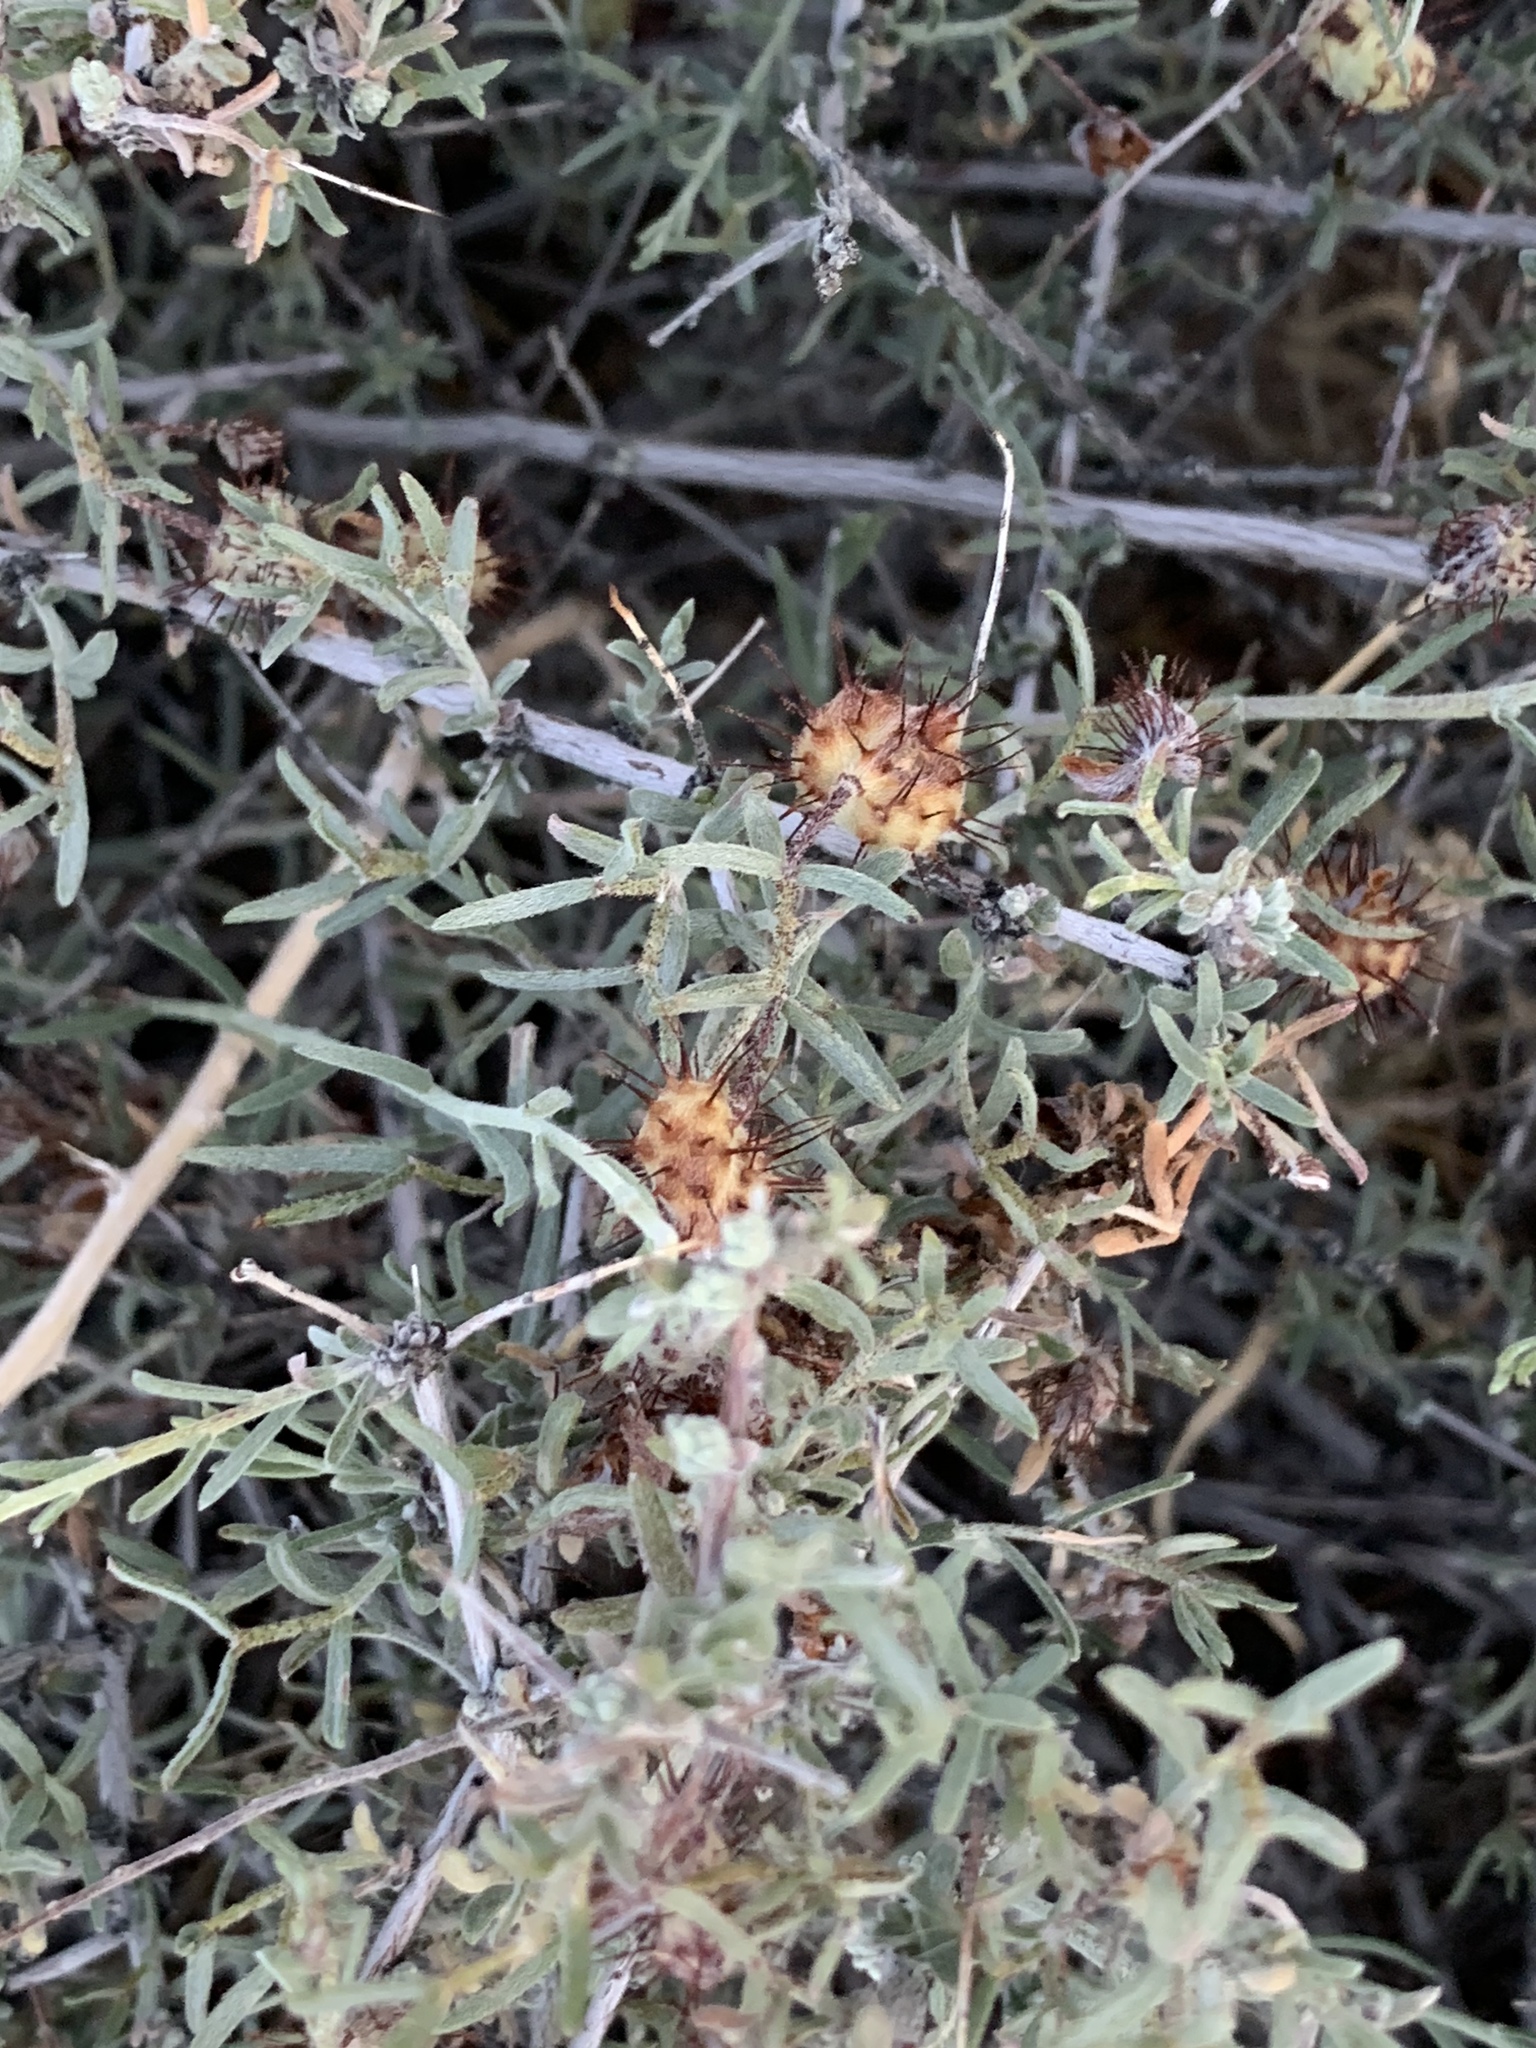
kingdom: Plantae
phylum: Tracheophyta
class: Magnoliopsida
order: Zygophyllales
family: Krameriaceae
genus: Krameria
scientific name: Krameria erecta
